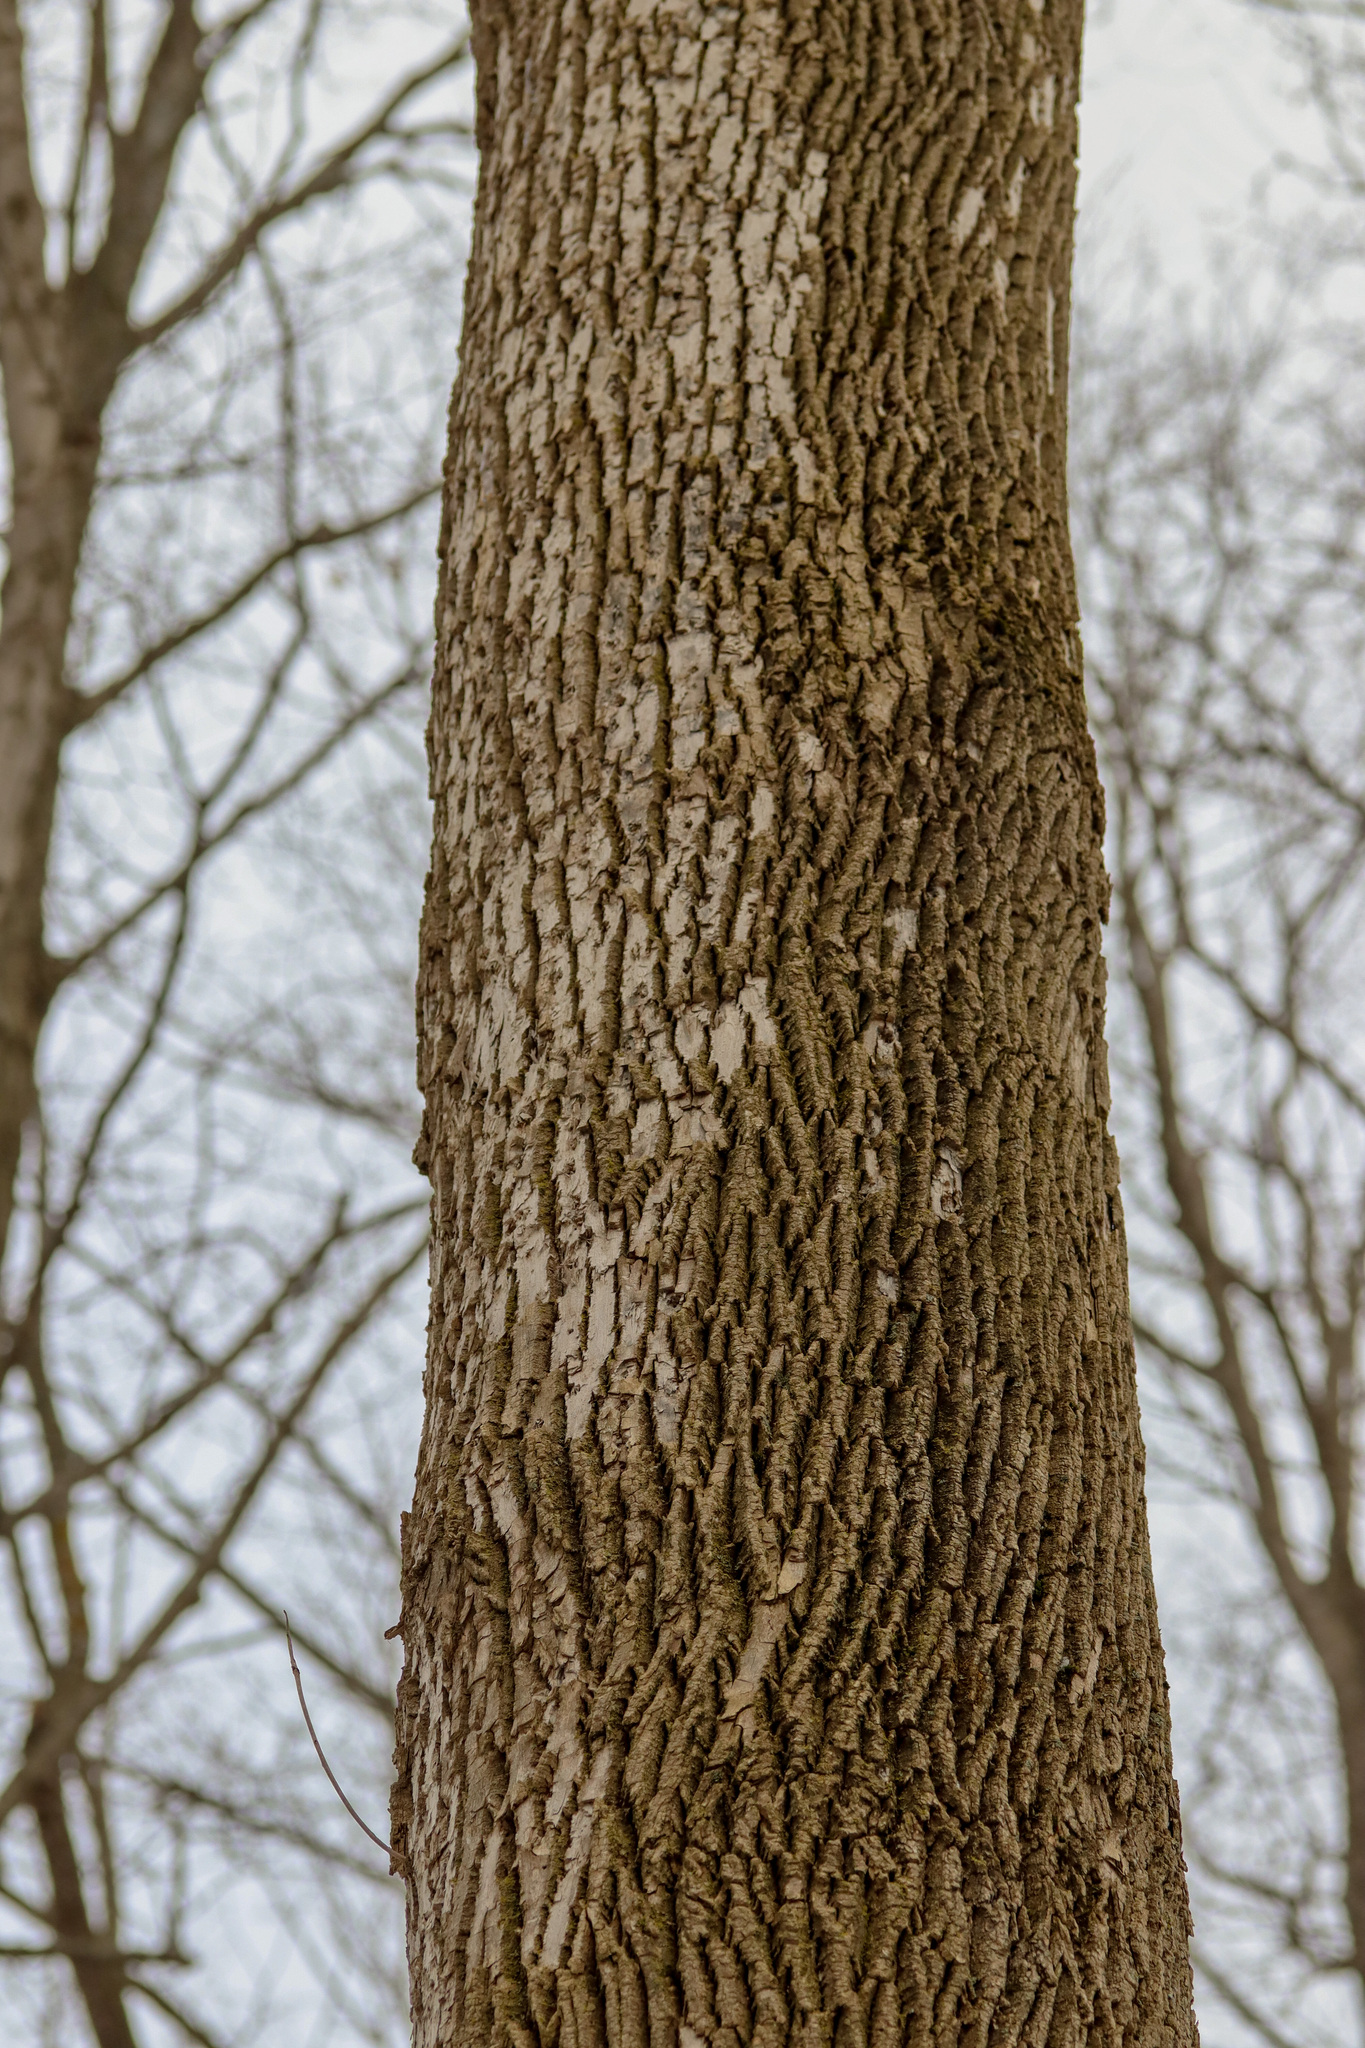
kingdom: Animalia
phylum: Arthropoda
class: Insecta
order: Coleoptera
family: Buprestidae
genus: Agrilus
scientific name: Agrilus planipennis
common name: Emerald ash borer
